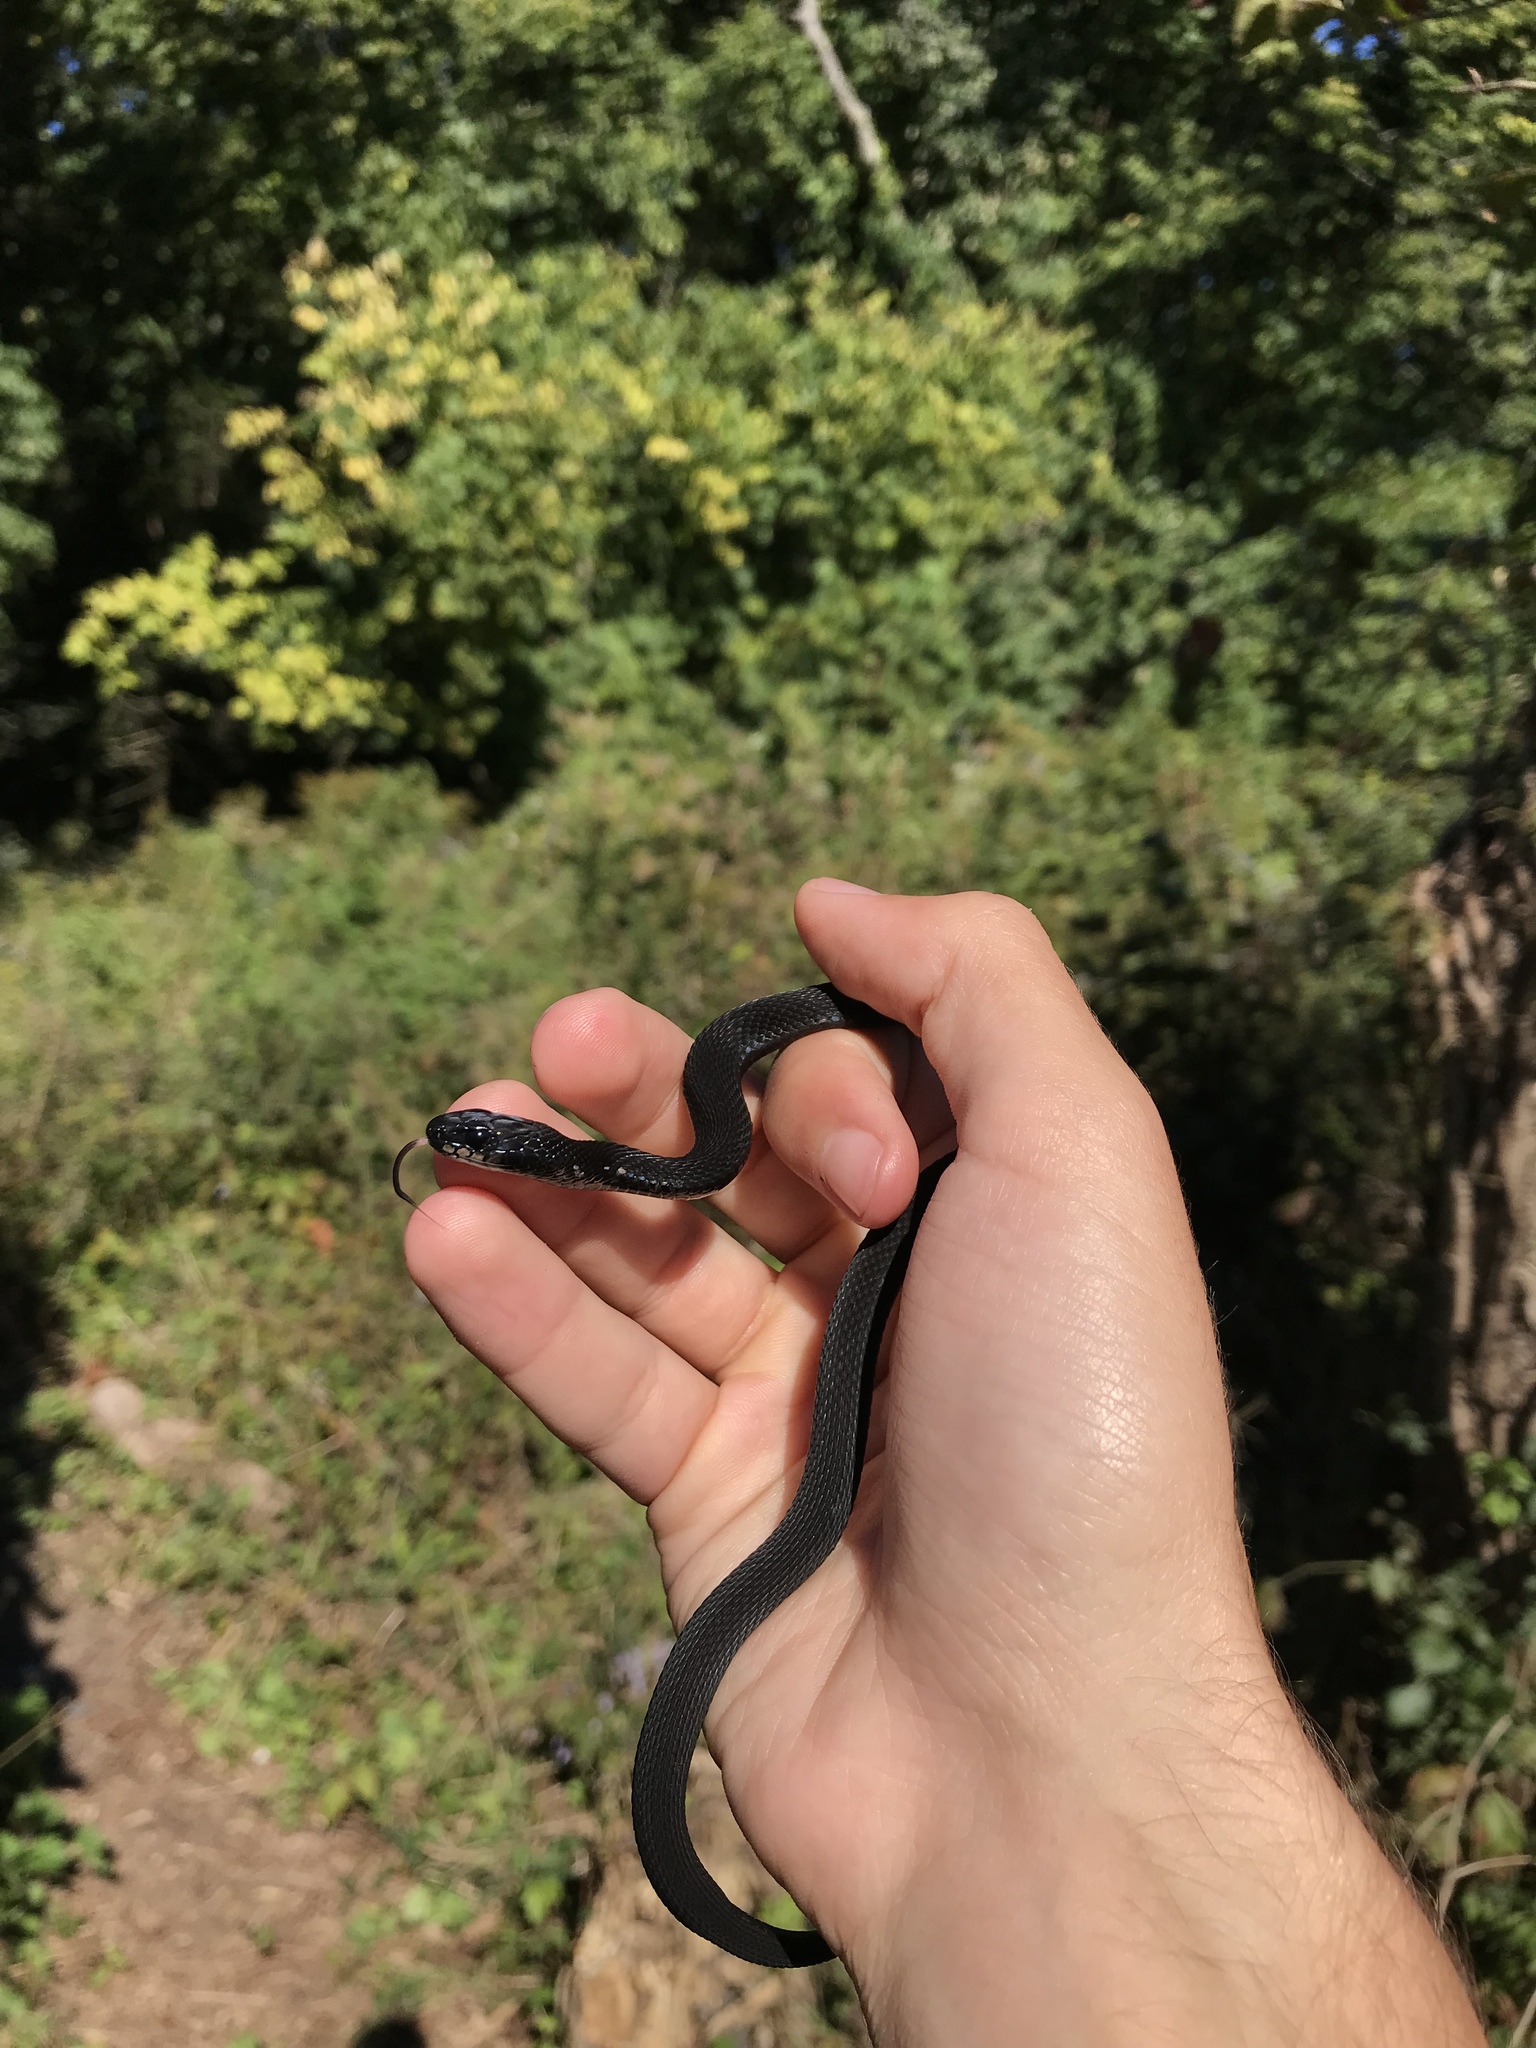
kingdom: Animalia
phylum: Chordata
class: Squamata
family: Colubridae
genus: Thamnophis
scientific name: Thamnophis sirtalis
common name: Common garter snake
